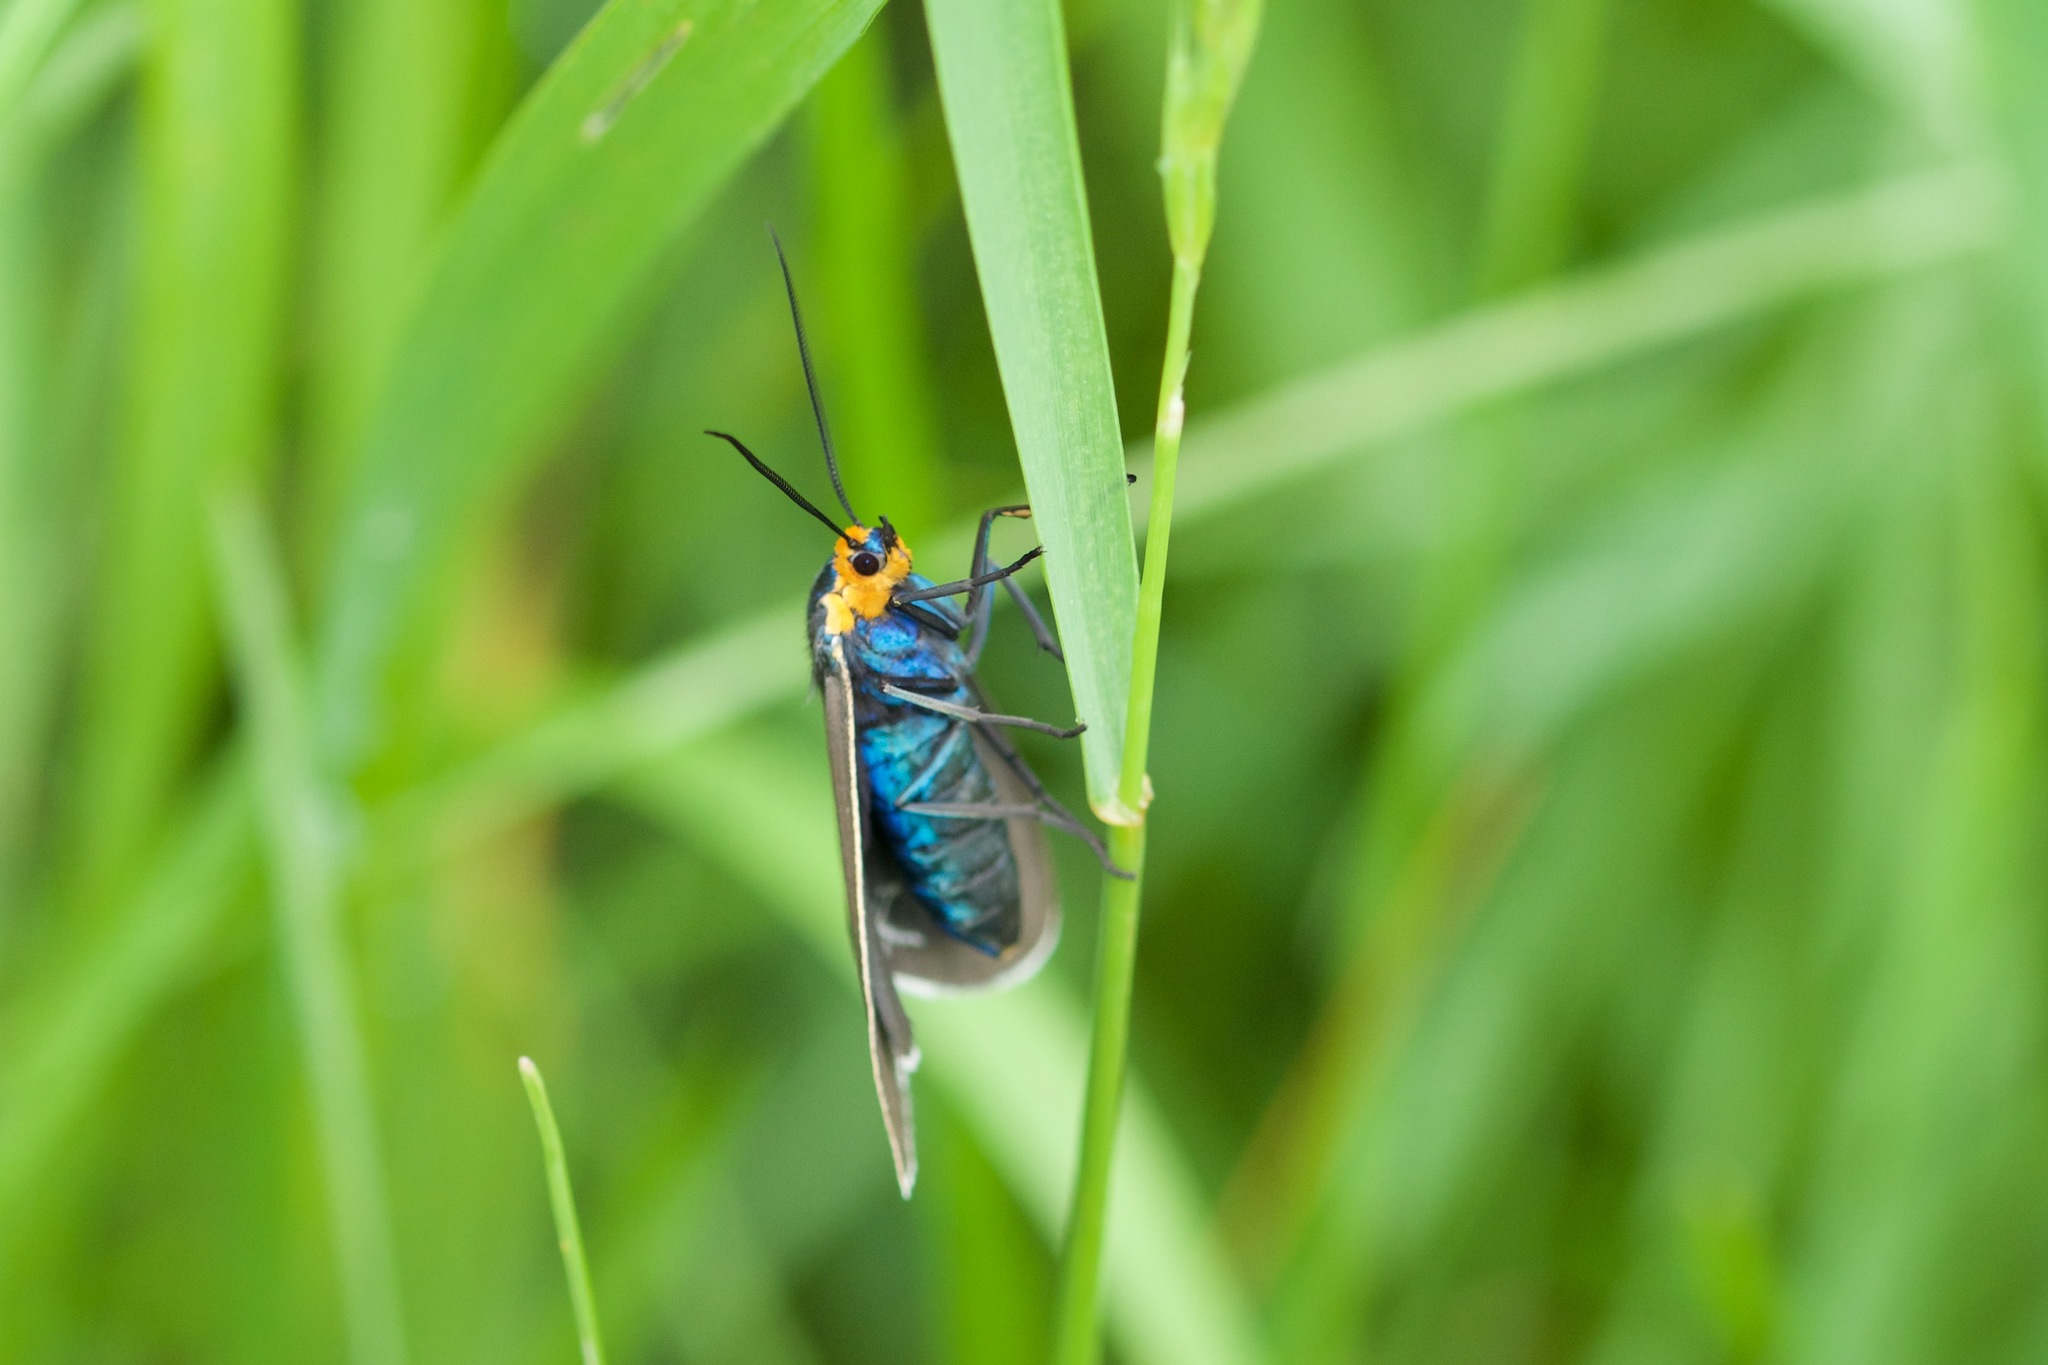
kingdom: Animalia
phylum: Arthropoda
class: Insecta
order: Lepidoptera
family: Erebidae
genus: Ctenucha
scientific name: Ctenucha virginica
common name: Virginia ctenucha moth
